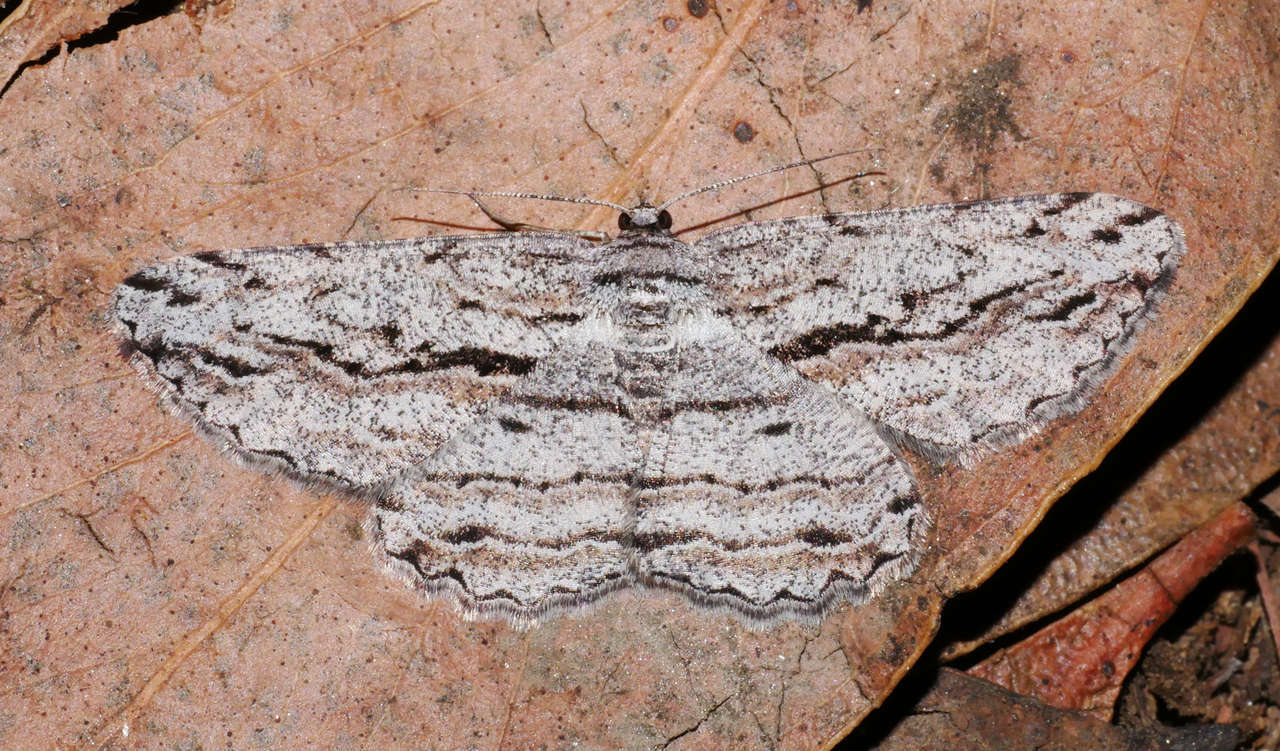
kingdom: Animalia
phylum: Arthropoda
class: Insecta
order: Lepidoptera
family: Geometridae
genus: Scioglyptis
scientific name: Scioglyptis loxographa
